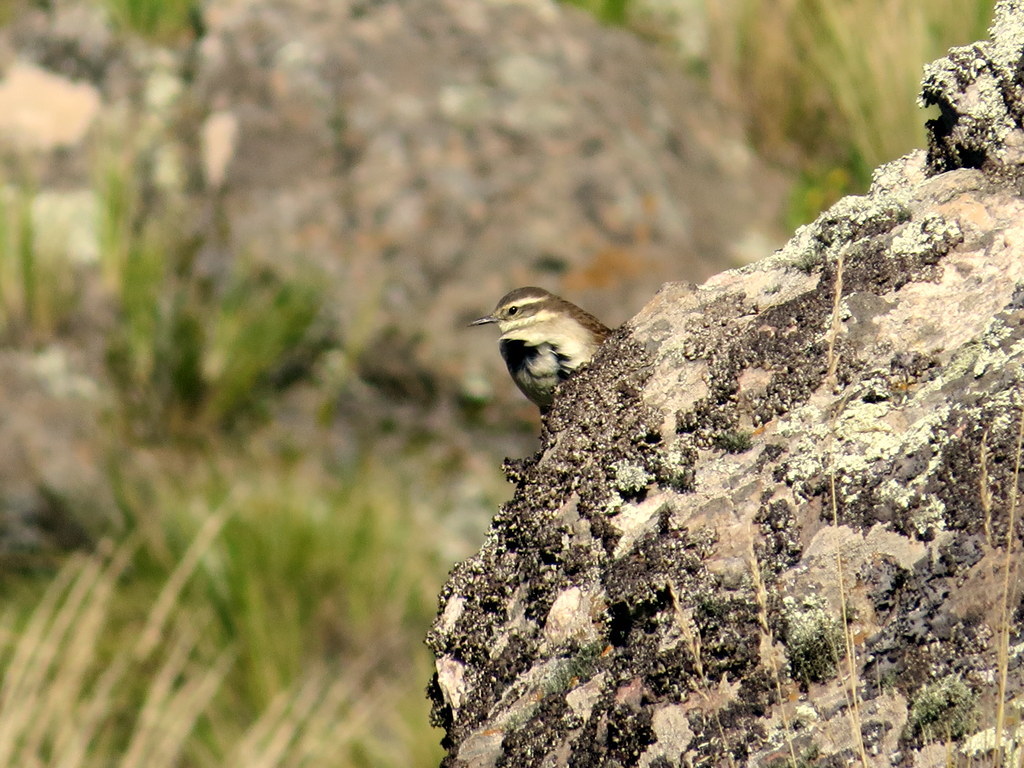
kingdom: Animalia
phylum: Chordata
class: Aves
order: Passeriformes
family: Furnariidae
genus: Cinclodes
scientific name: Cinclodes fuscus
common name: Buff-winged cinclodes
